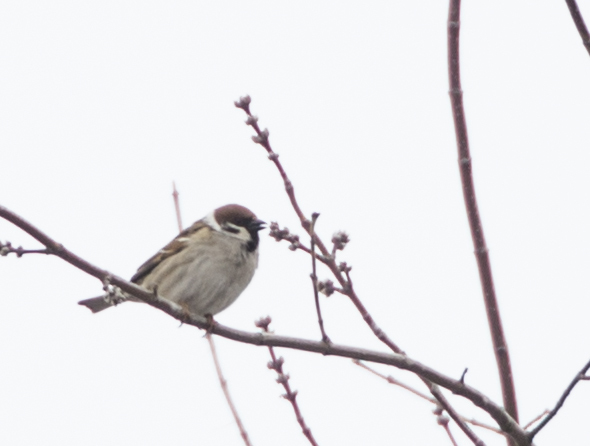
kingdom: Animalia
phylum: Chordata
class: Aves
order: Passeriformes
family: Passeridae
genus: Passer
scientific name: Passer montanus
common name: Eurasian tree sparrow
